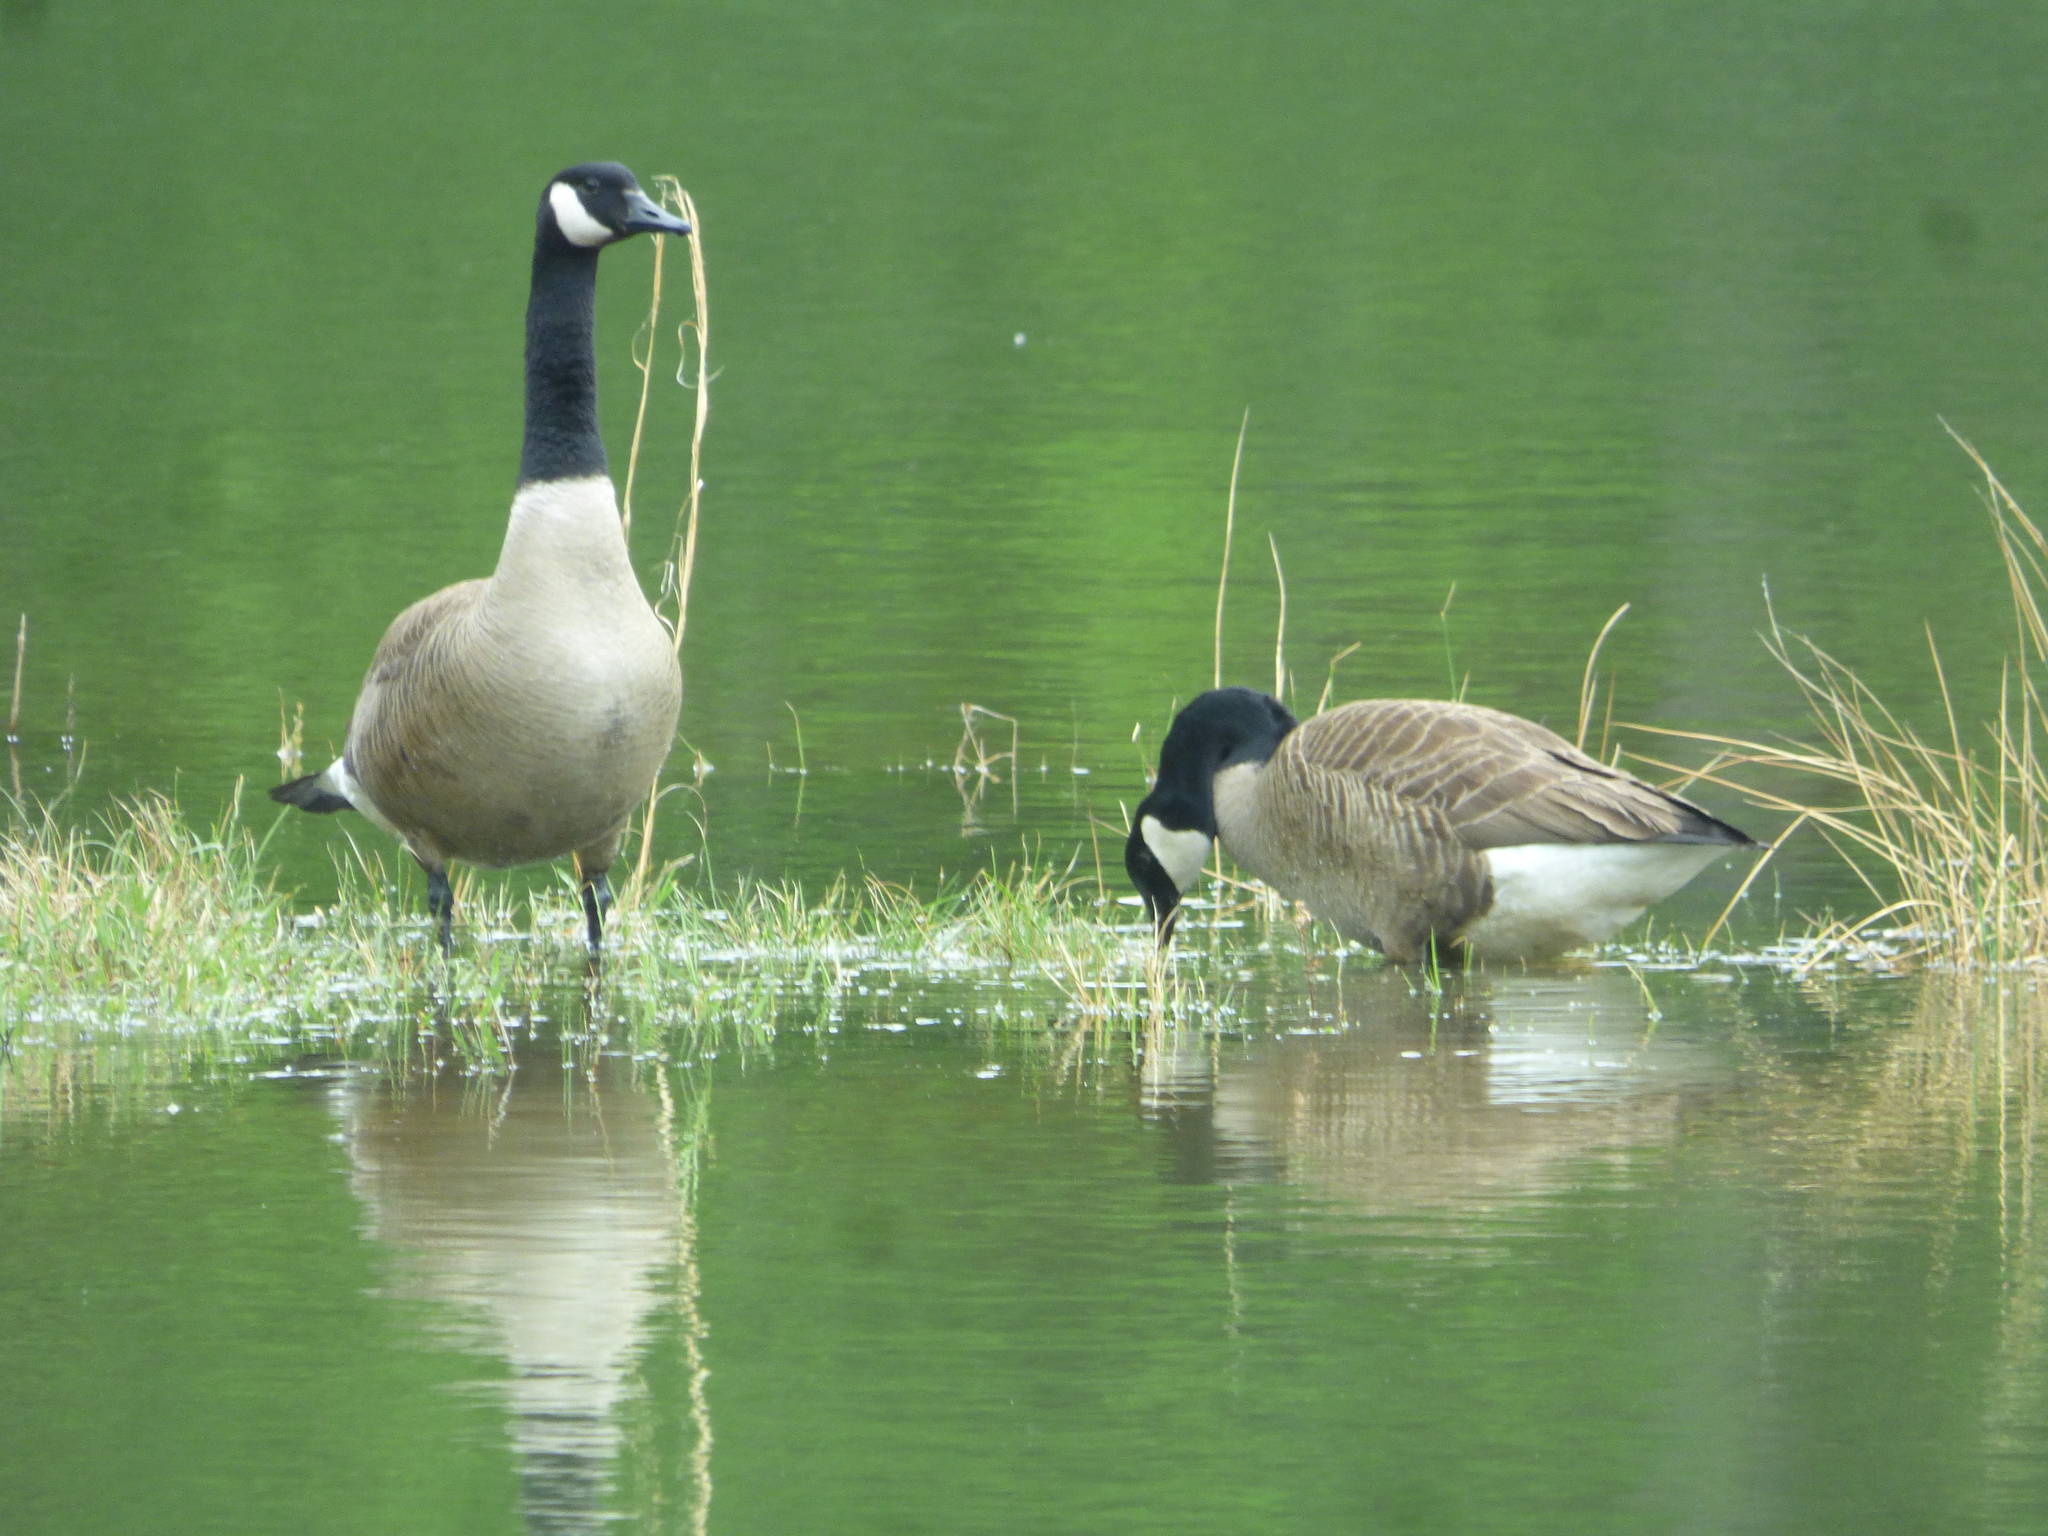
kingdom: Animalia
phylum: Chordata
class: Aves
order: Anseriformes
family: Anatidae
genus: Branta
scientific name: Branta canadensis
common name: Canada goose
